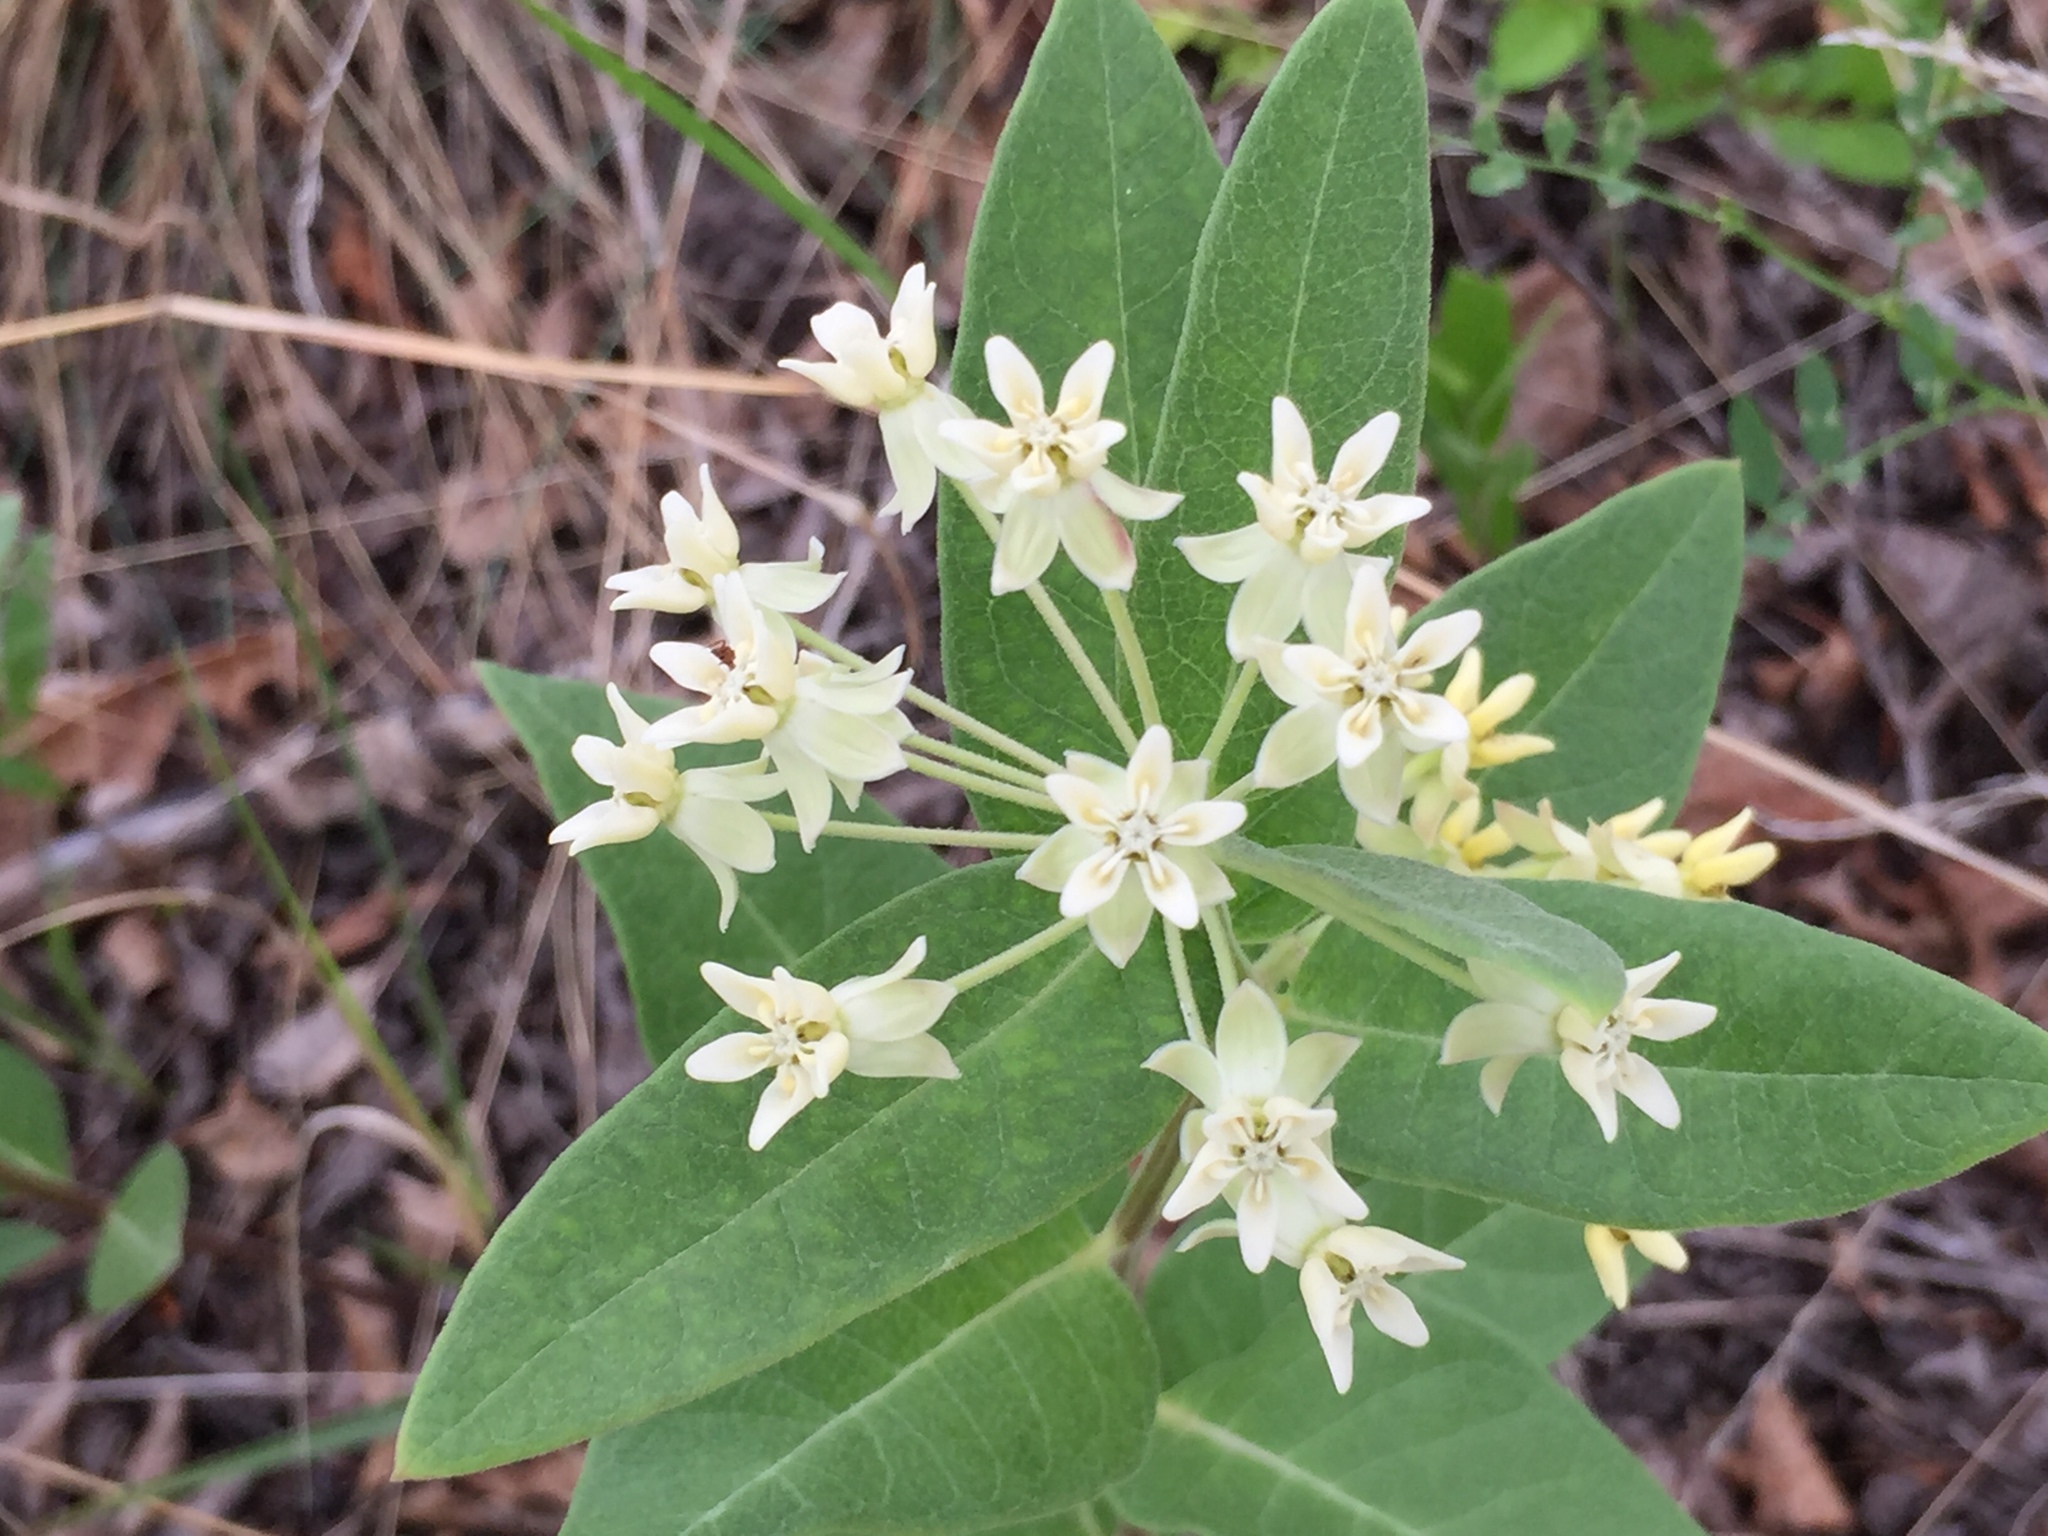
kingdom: Plantae
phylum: Tracheophyta
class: Magnoliopsida
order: Gentianales
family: Apocynaceae
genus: Asclepias
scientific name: Asclepias ovalifolia
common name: Dwarf milkweed
